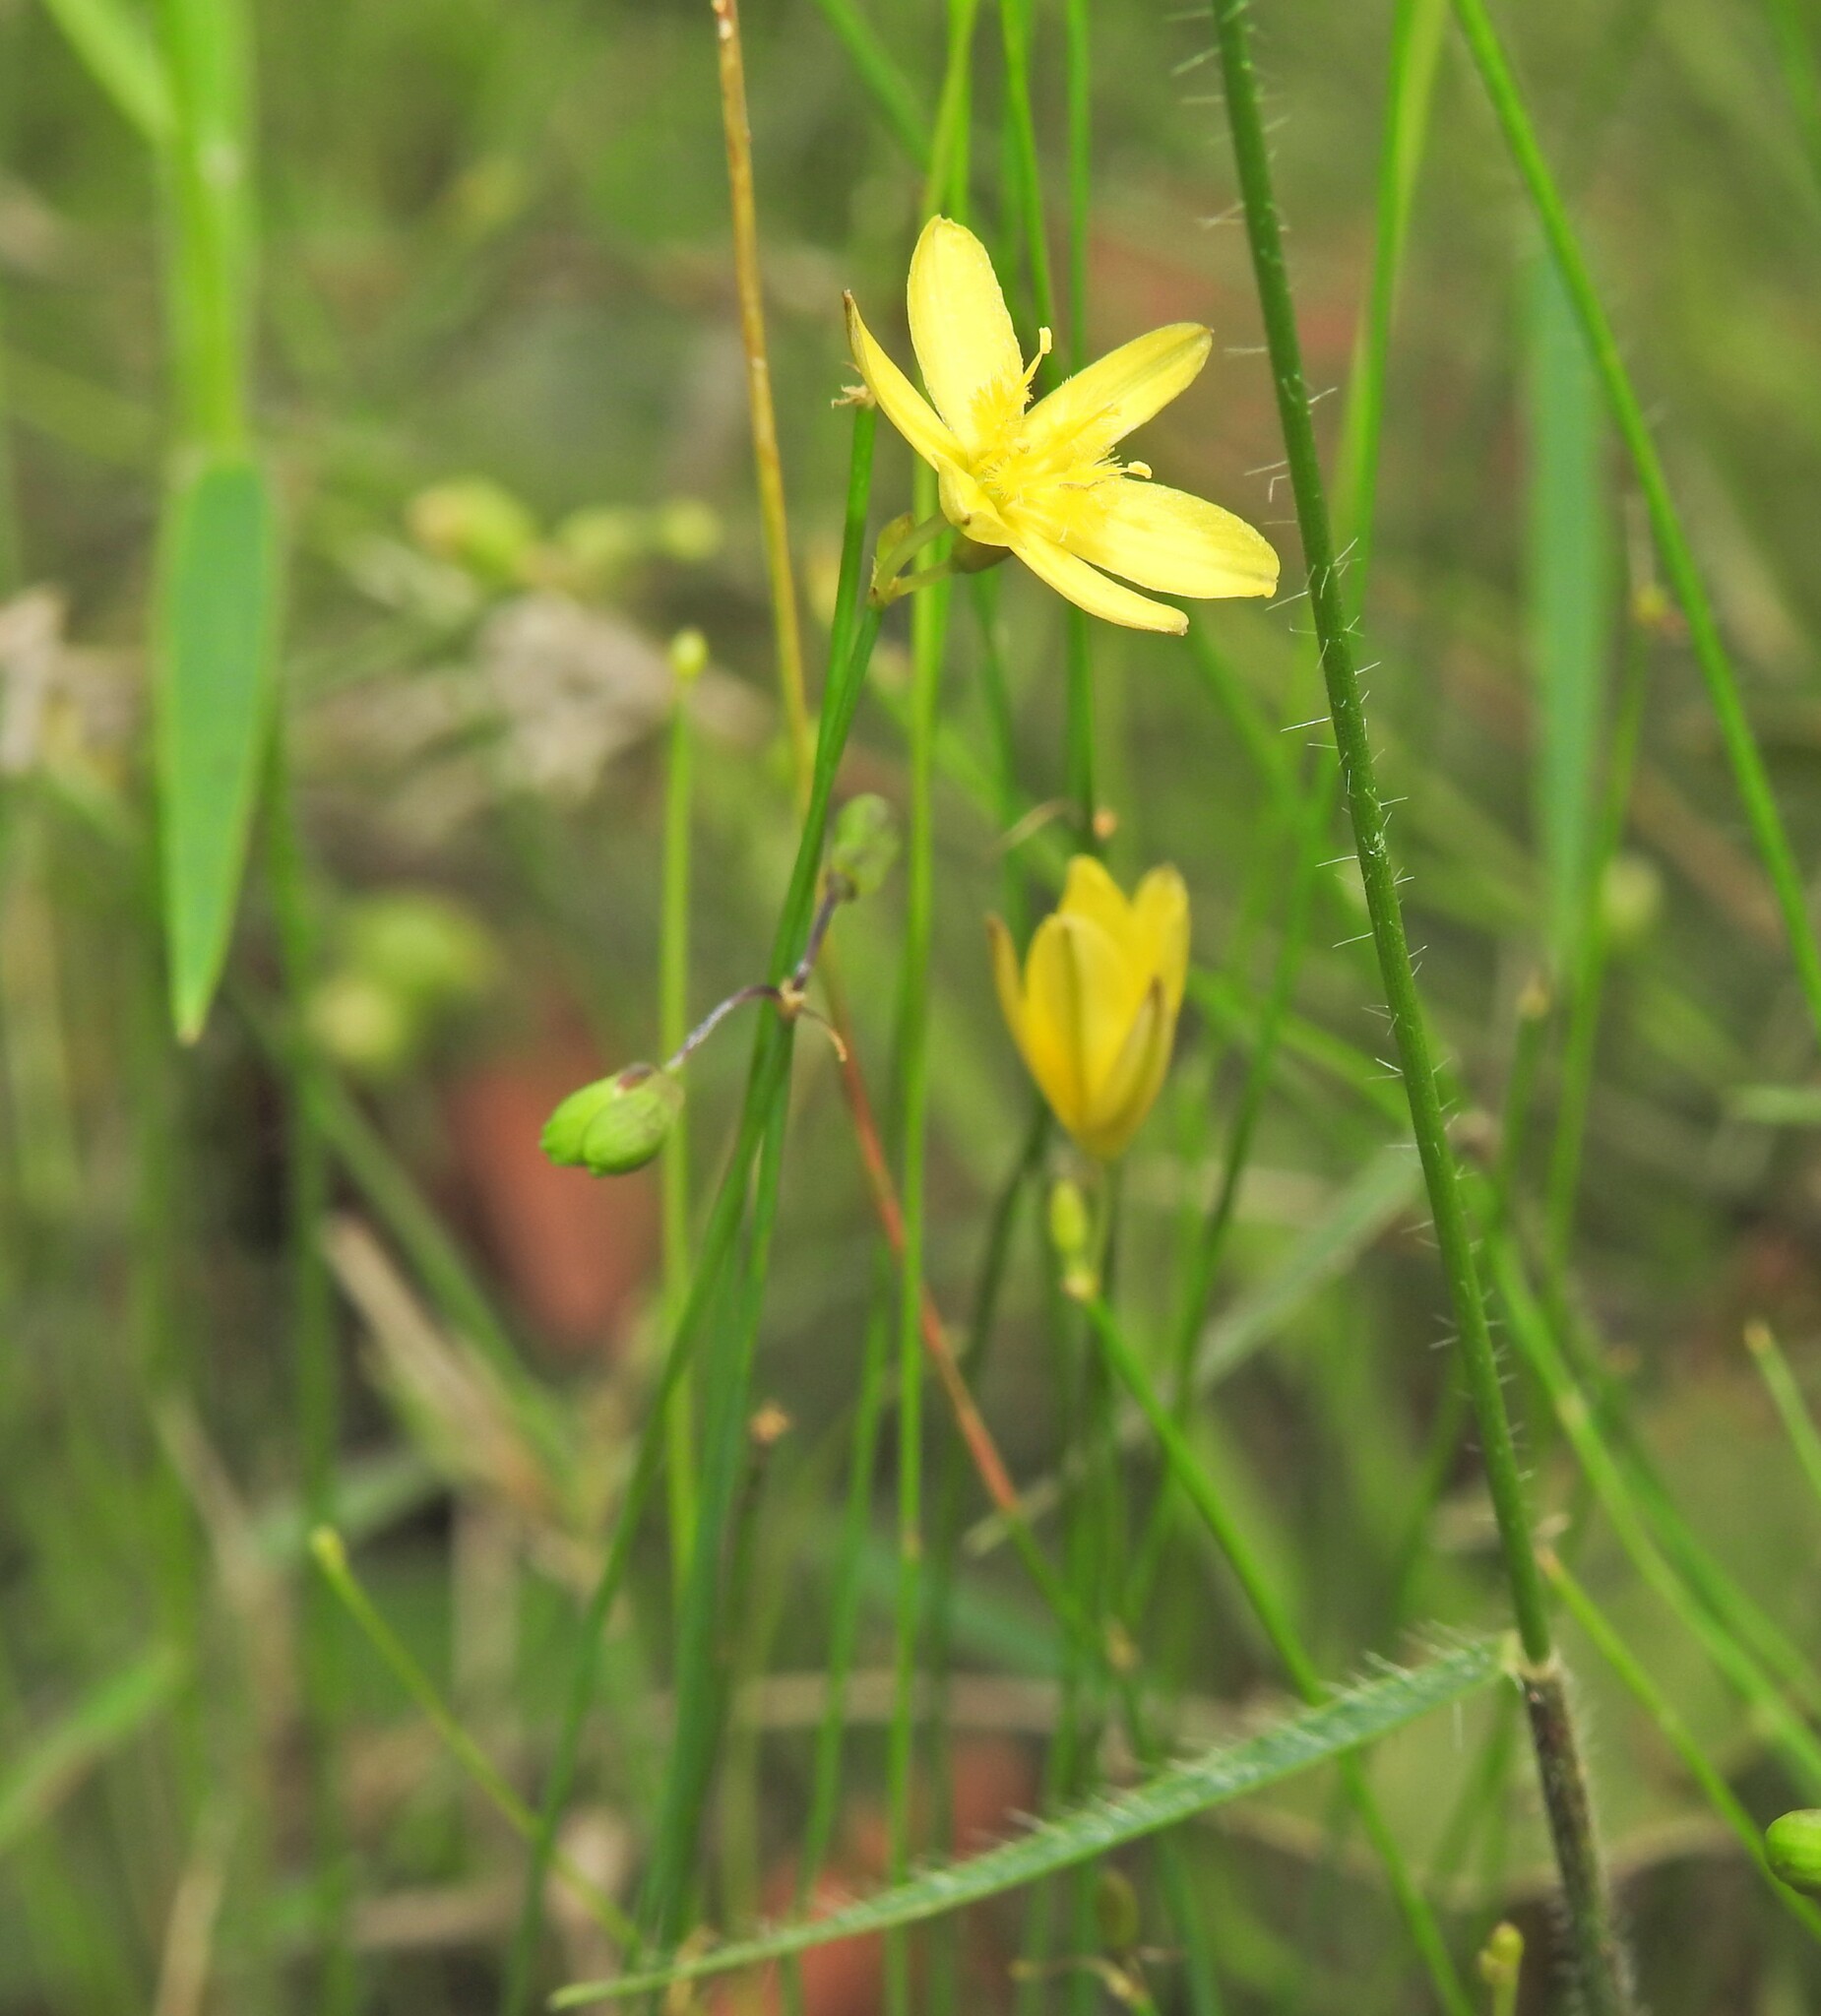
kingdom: Plantae
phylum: Tracheophyta
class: Liliopsida
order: Asparagales
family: Asphodelaceae
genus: Tricoryne
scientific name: Tricoryne elatior
